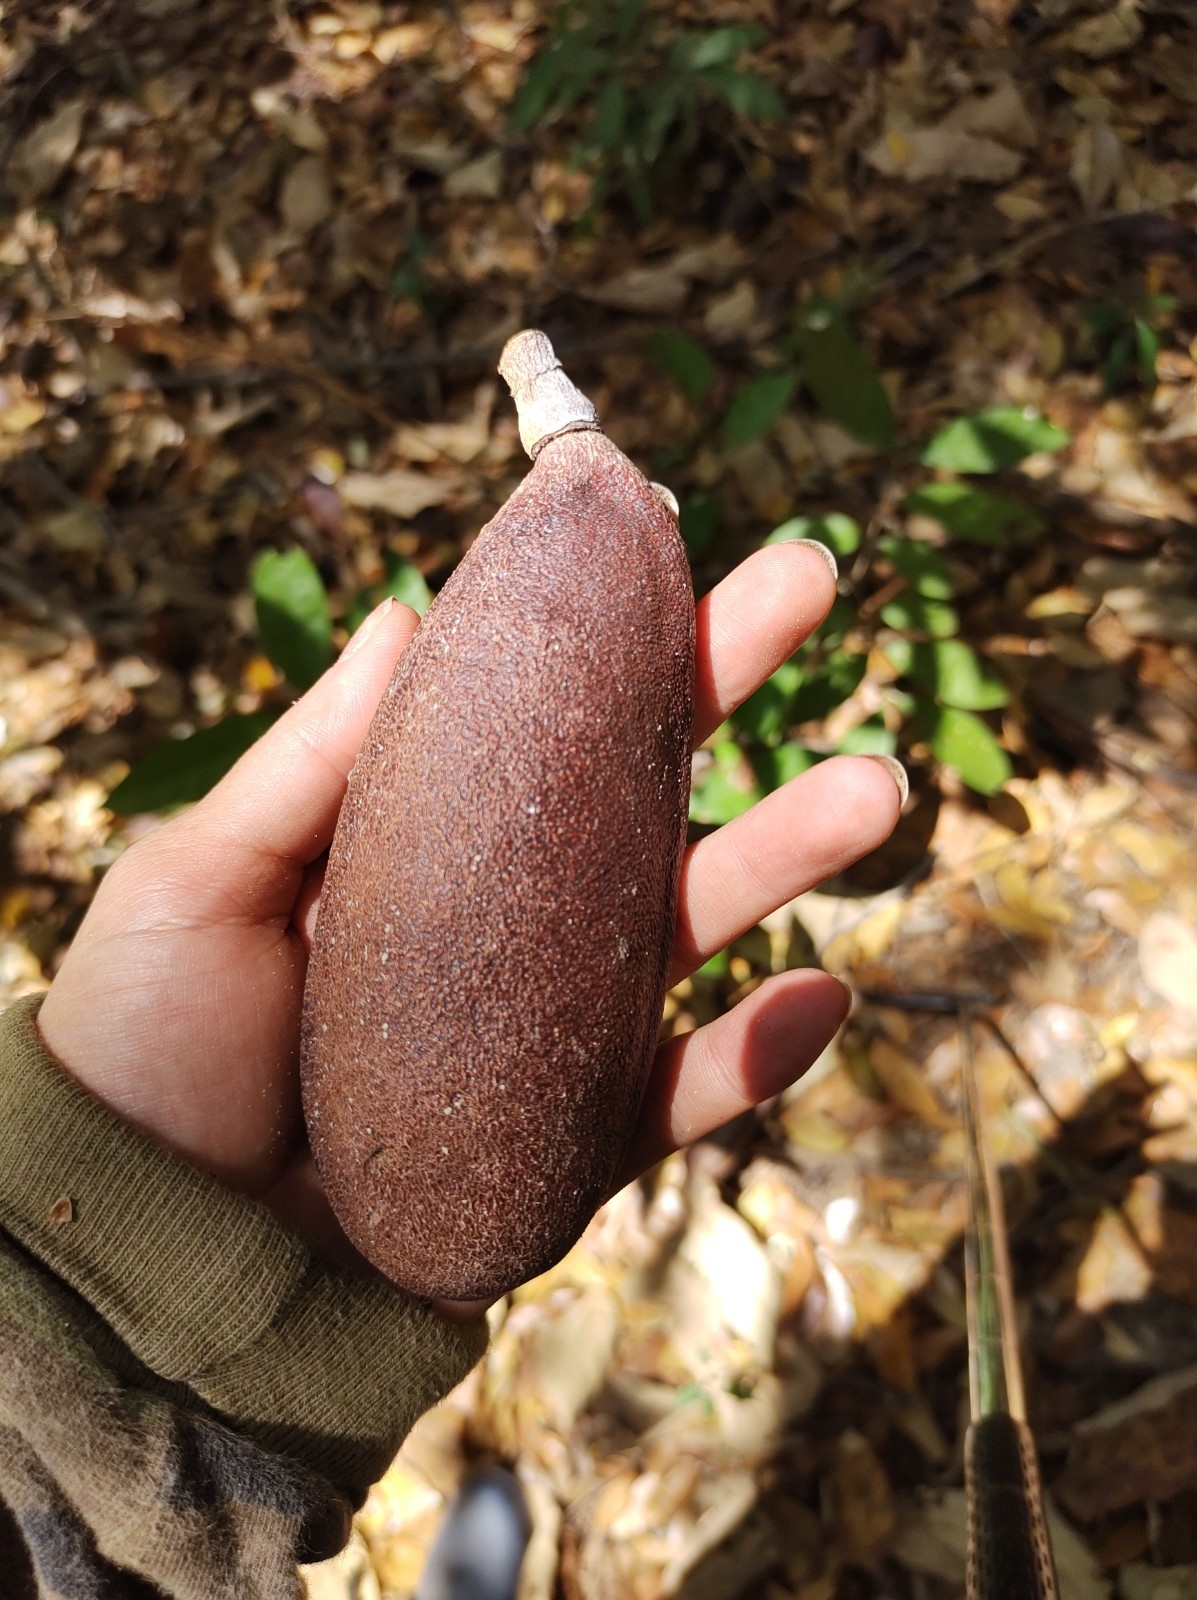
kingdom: Plantae
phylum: Tracheophyta
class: Magnoliopsida
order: Fabales
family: Fabaceae
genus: Hymenaea
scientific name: Hymenaea courbaril
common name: Brazilian copal
